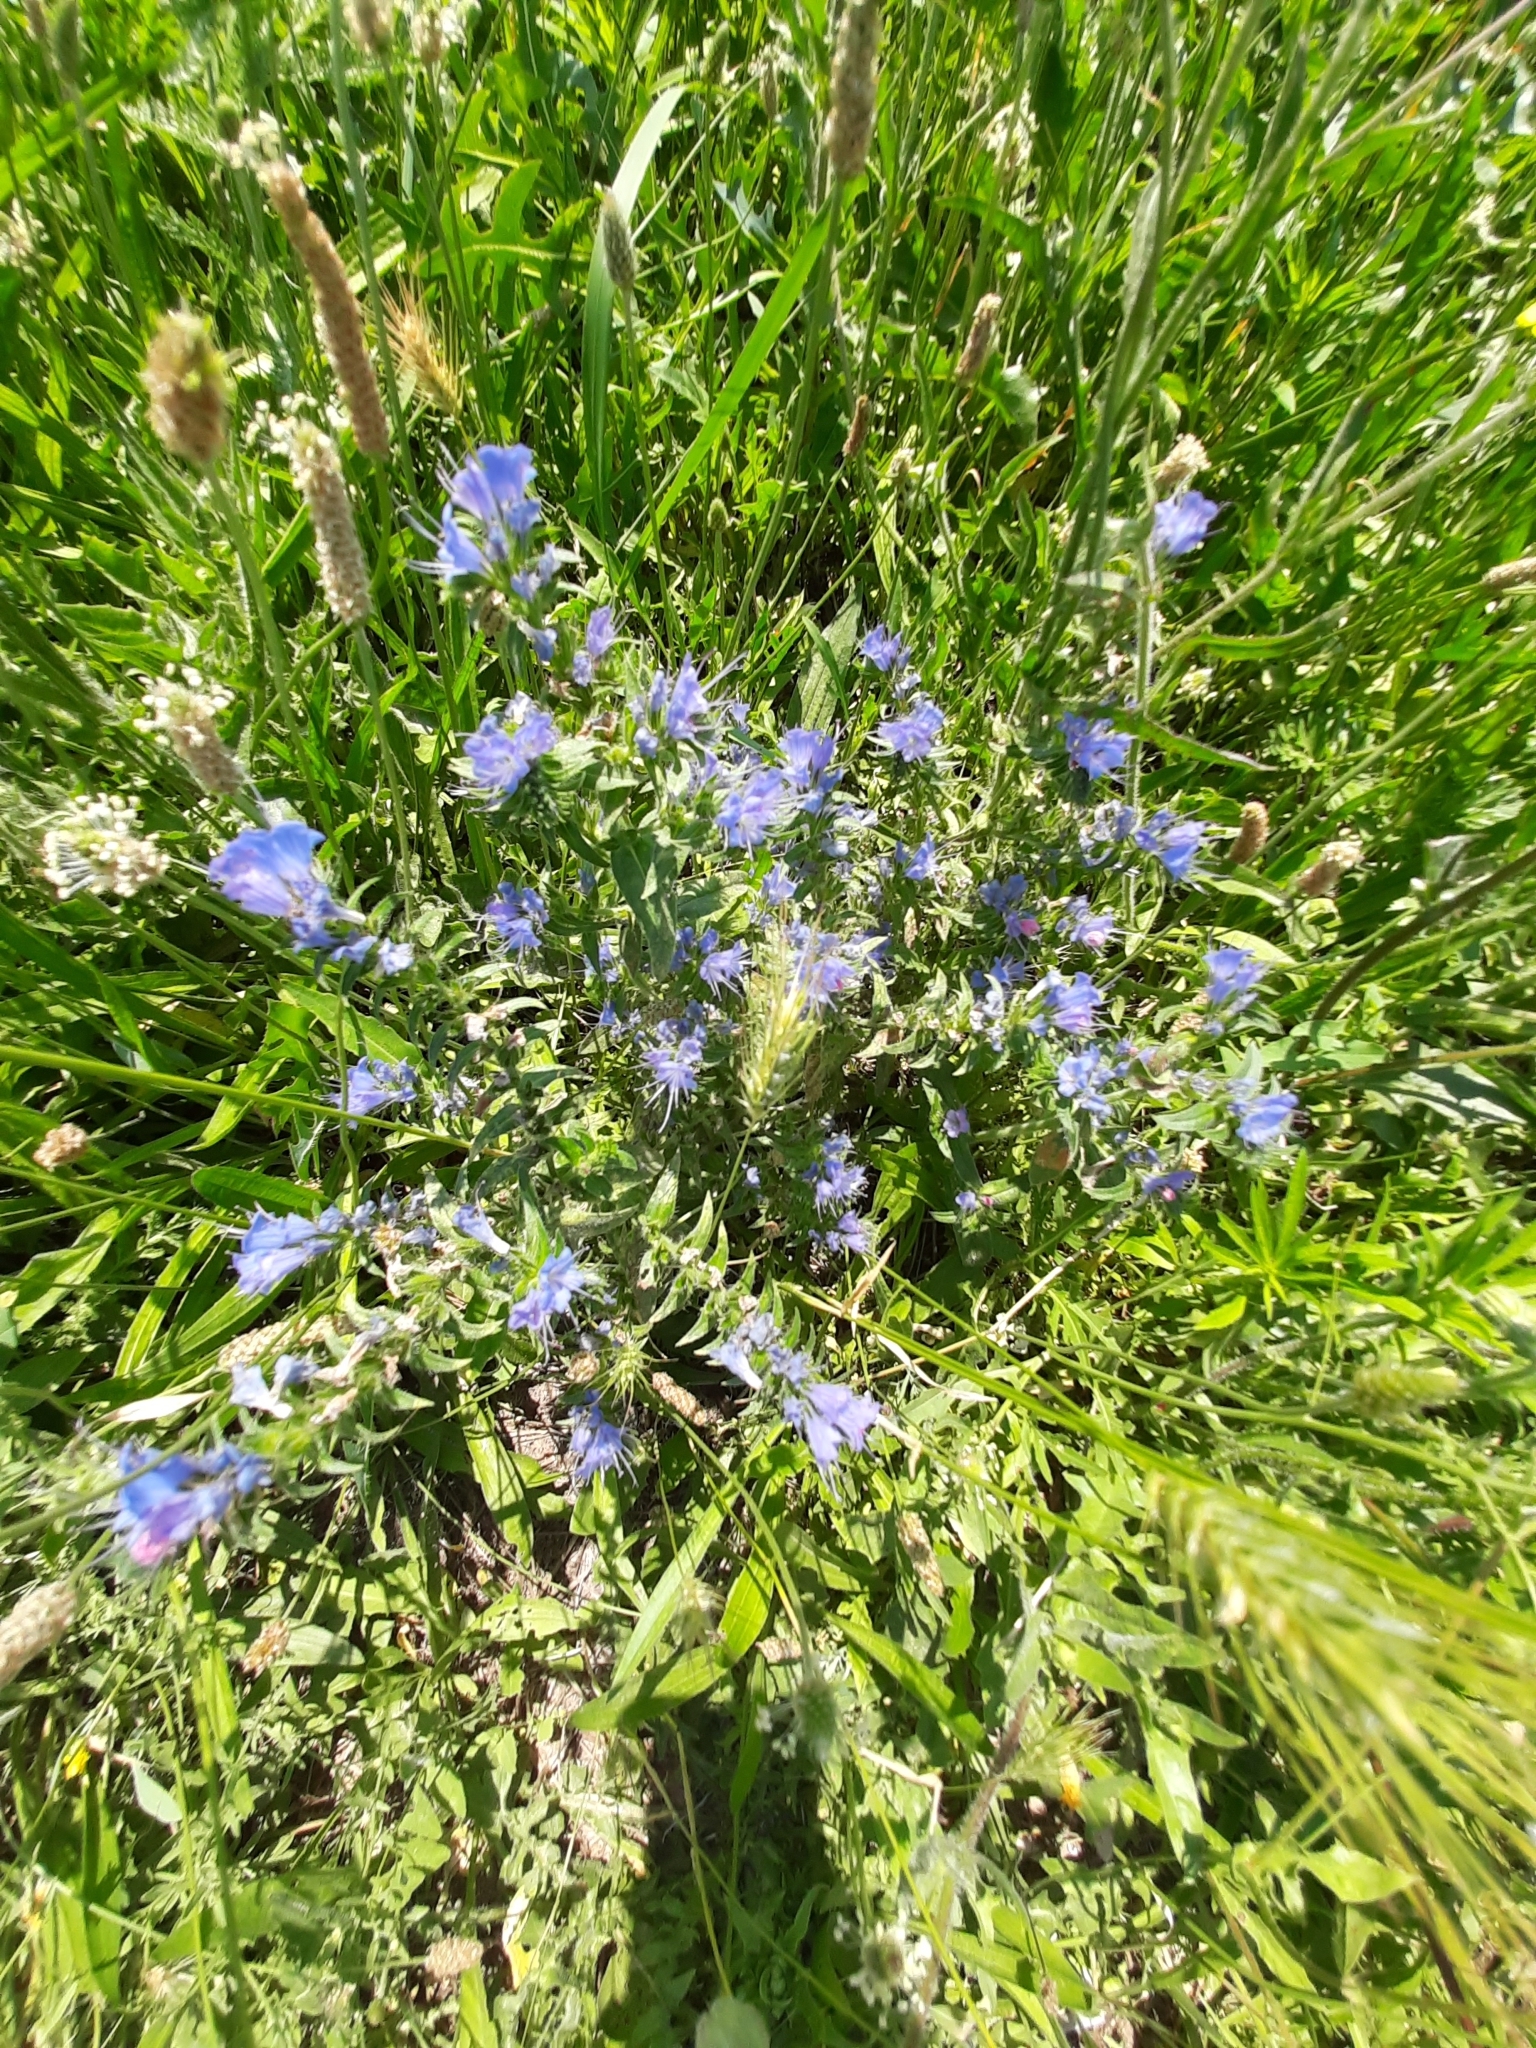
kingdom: Plantae
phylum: Tracheophyta
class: Magnoliopsida
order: Boraginales
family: Boraginaceae
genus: Echium
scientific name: Echium vulgare
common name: Common viper's bugloss
